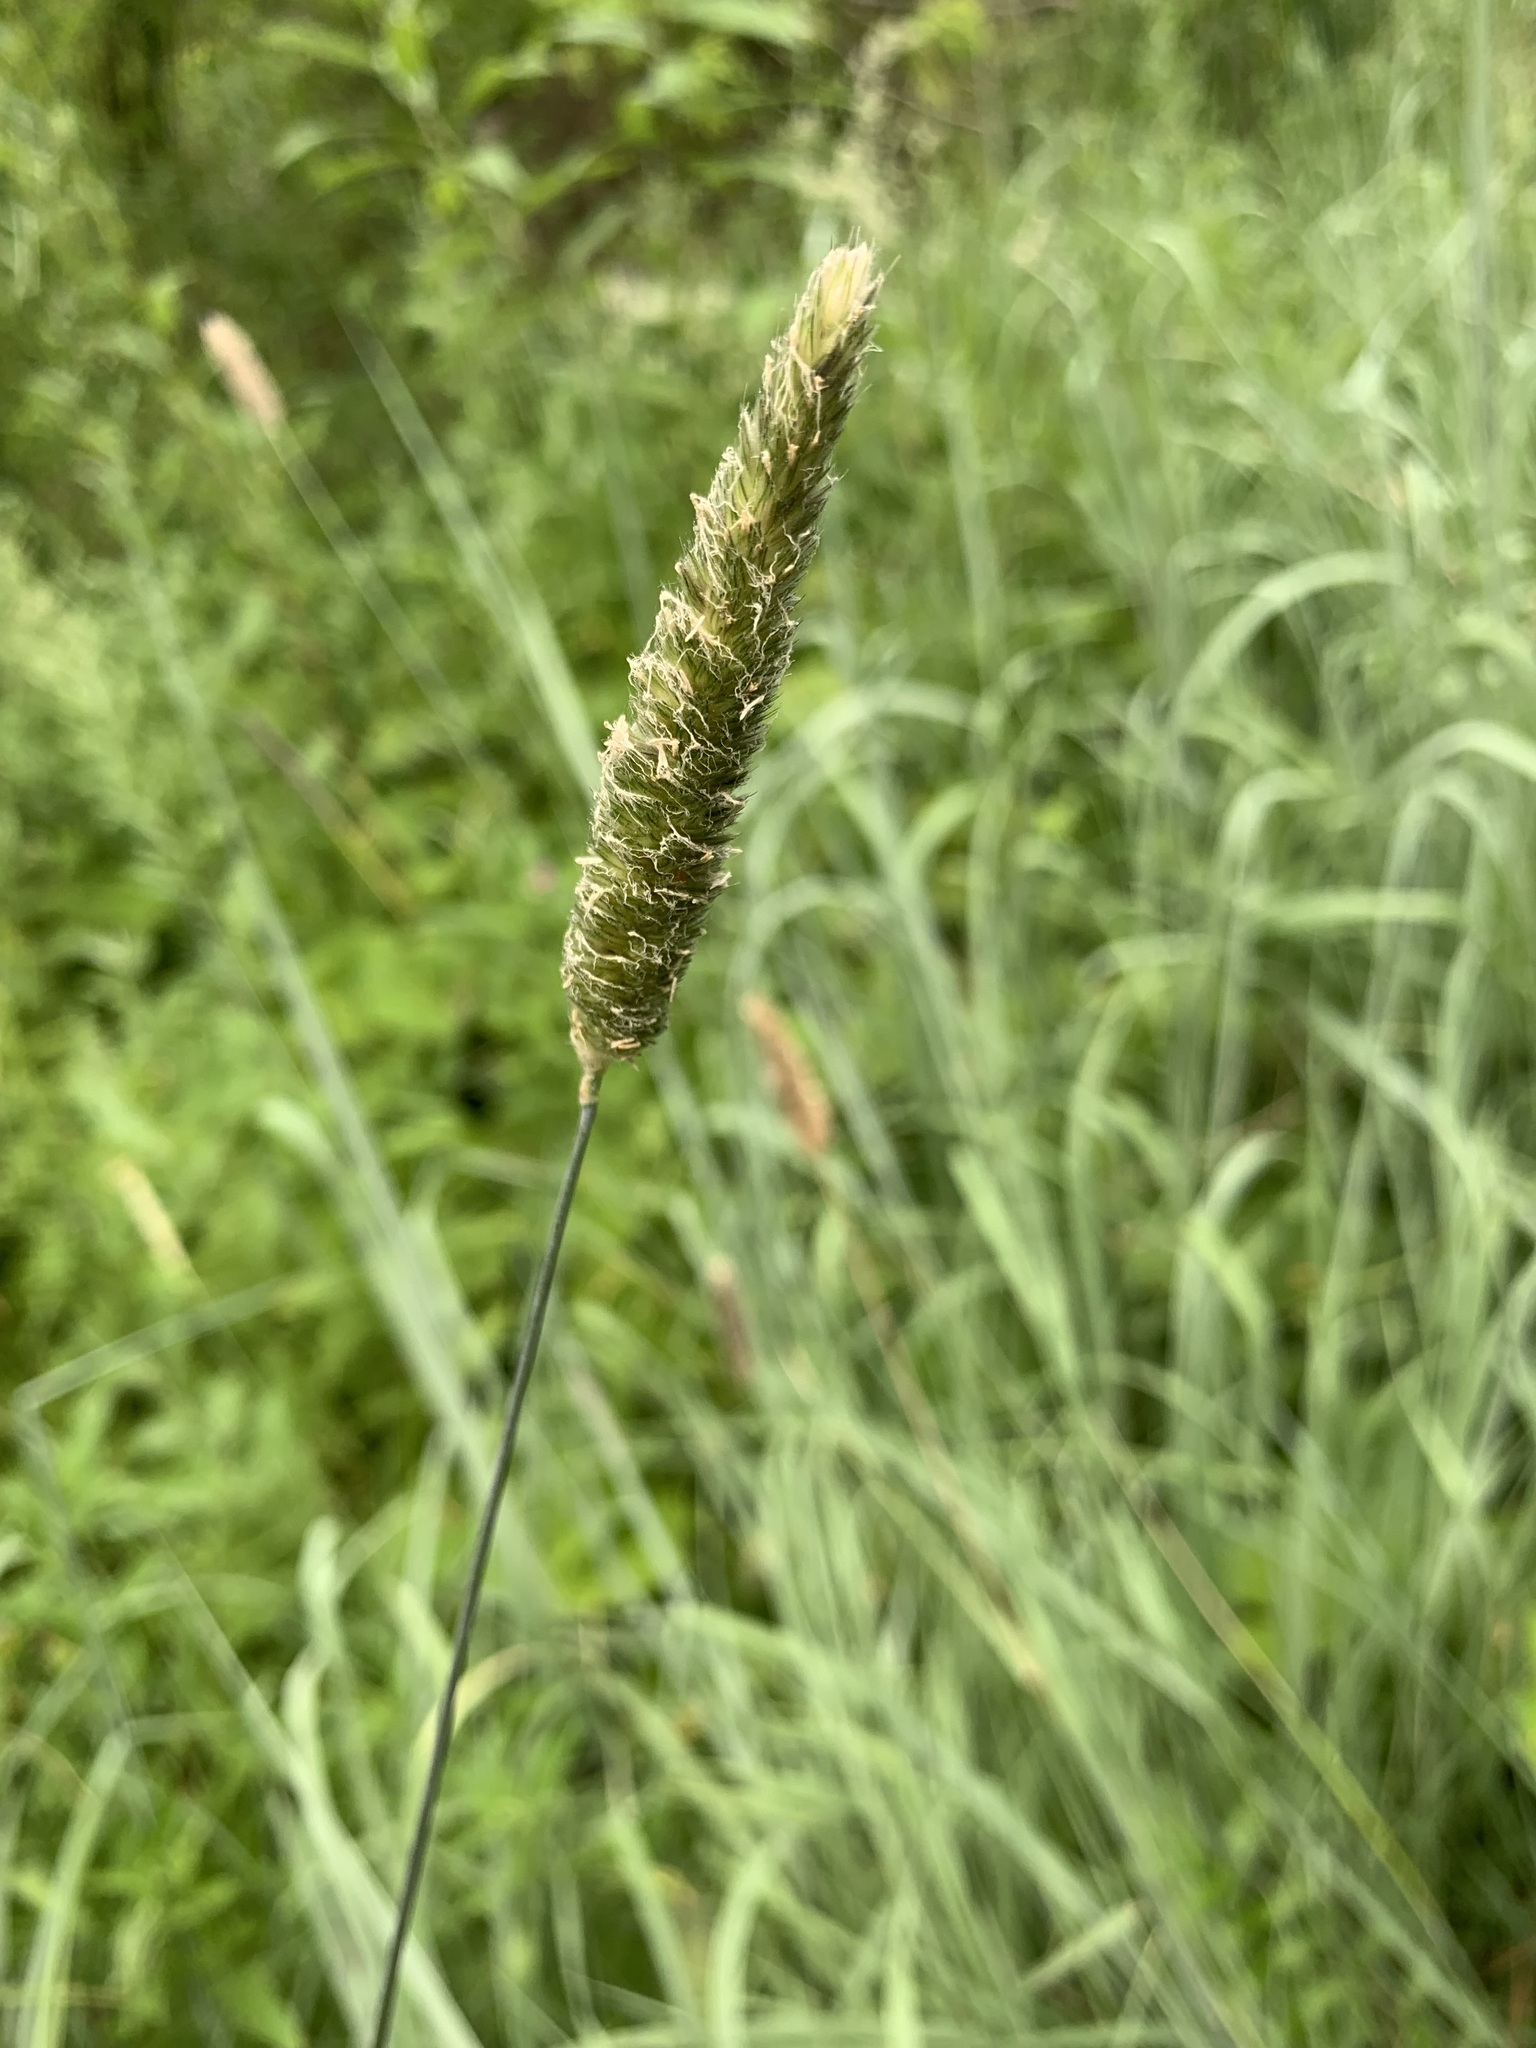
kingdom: Plantae
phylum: Tracheophyta
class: Liliopsida
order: Poales
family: Poaceae
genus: Alopecurus
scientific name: Alopecurus arundinaceus
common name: Creeping meadow foxtail
